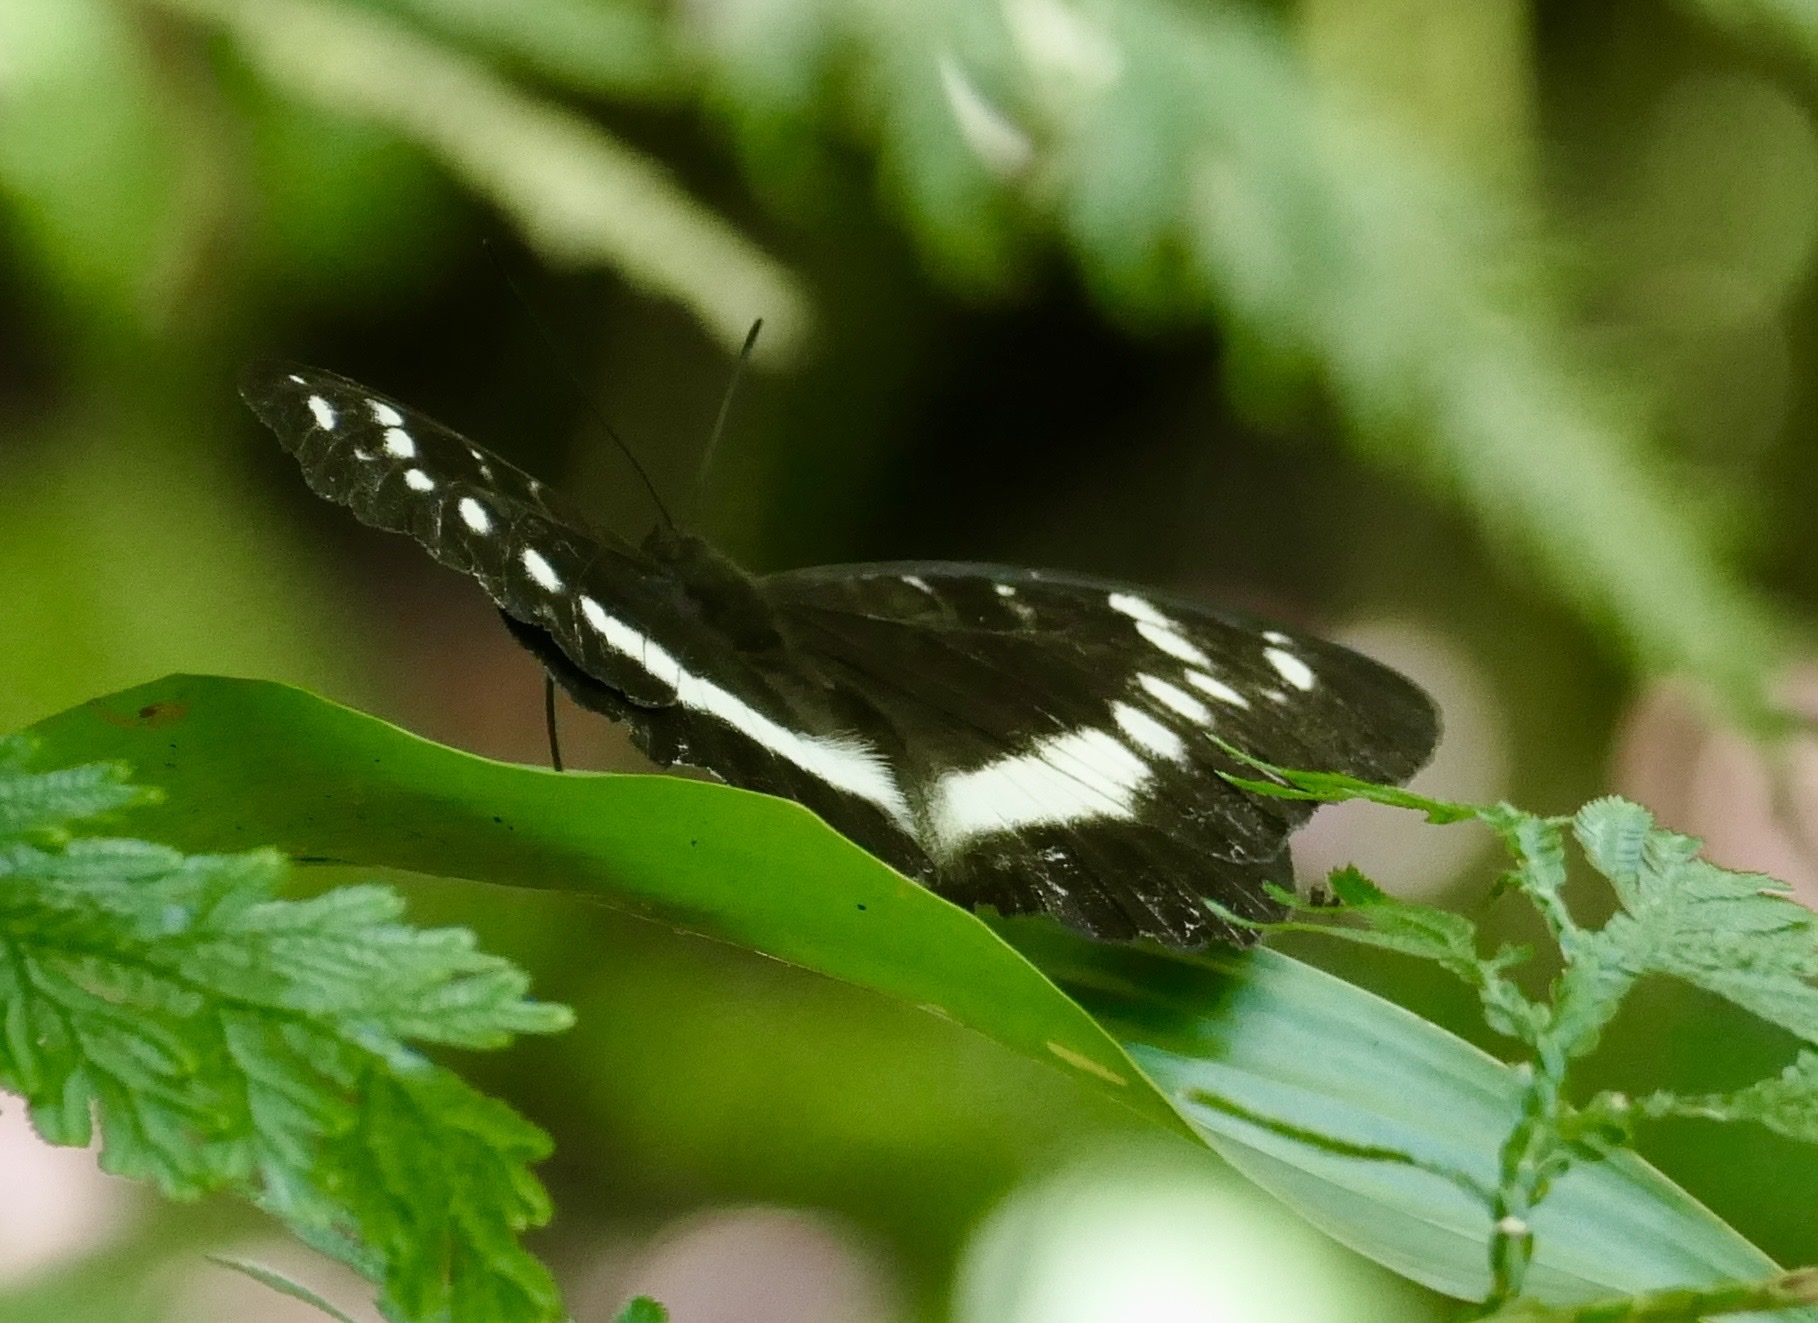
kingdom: Animalia
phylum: Arthropoda
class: Insecta
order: Lepidoptera
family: Nymphalidae
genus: Lexias
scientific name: Lexias aeropa
